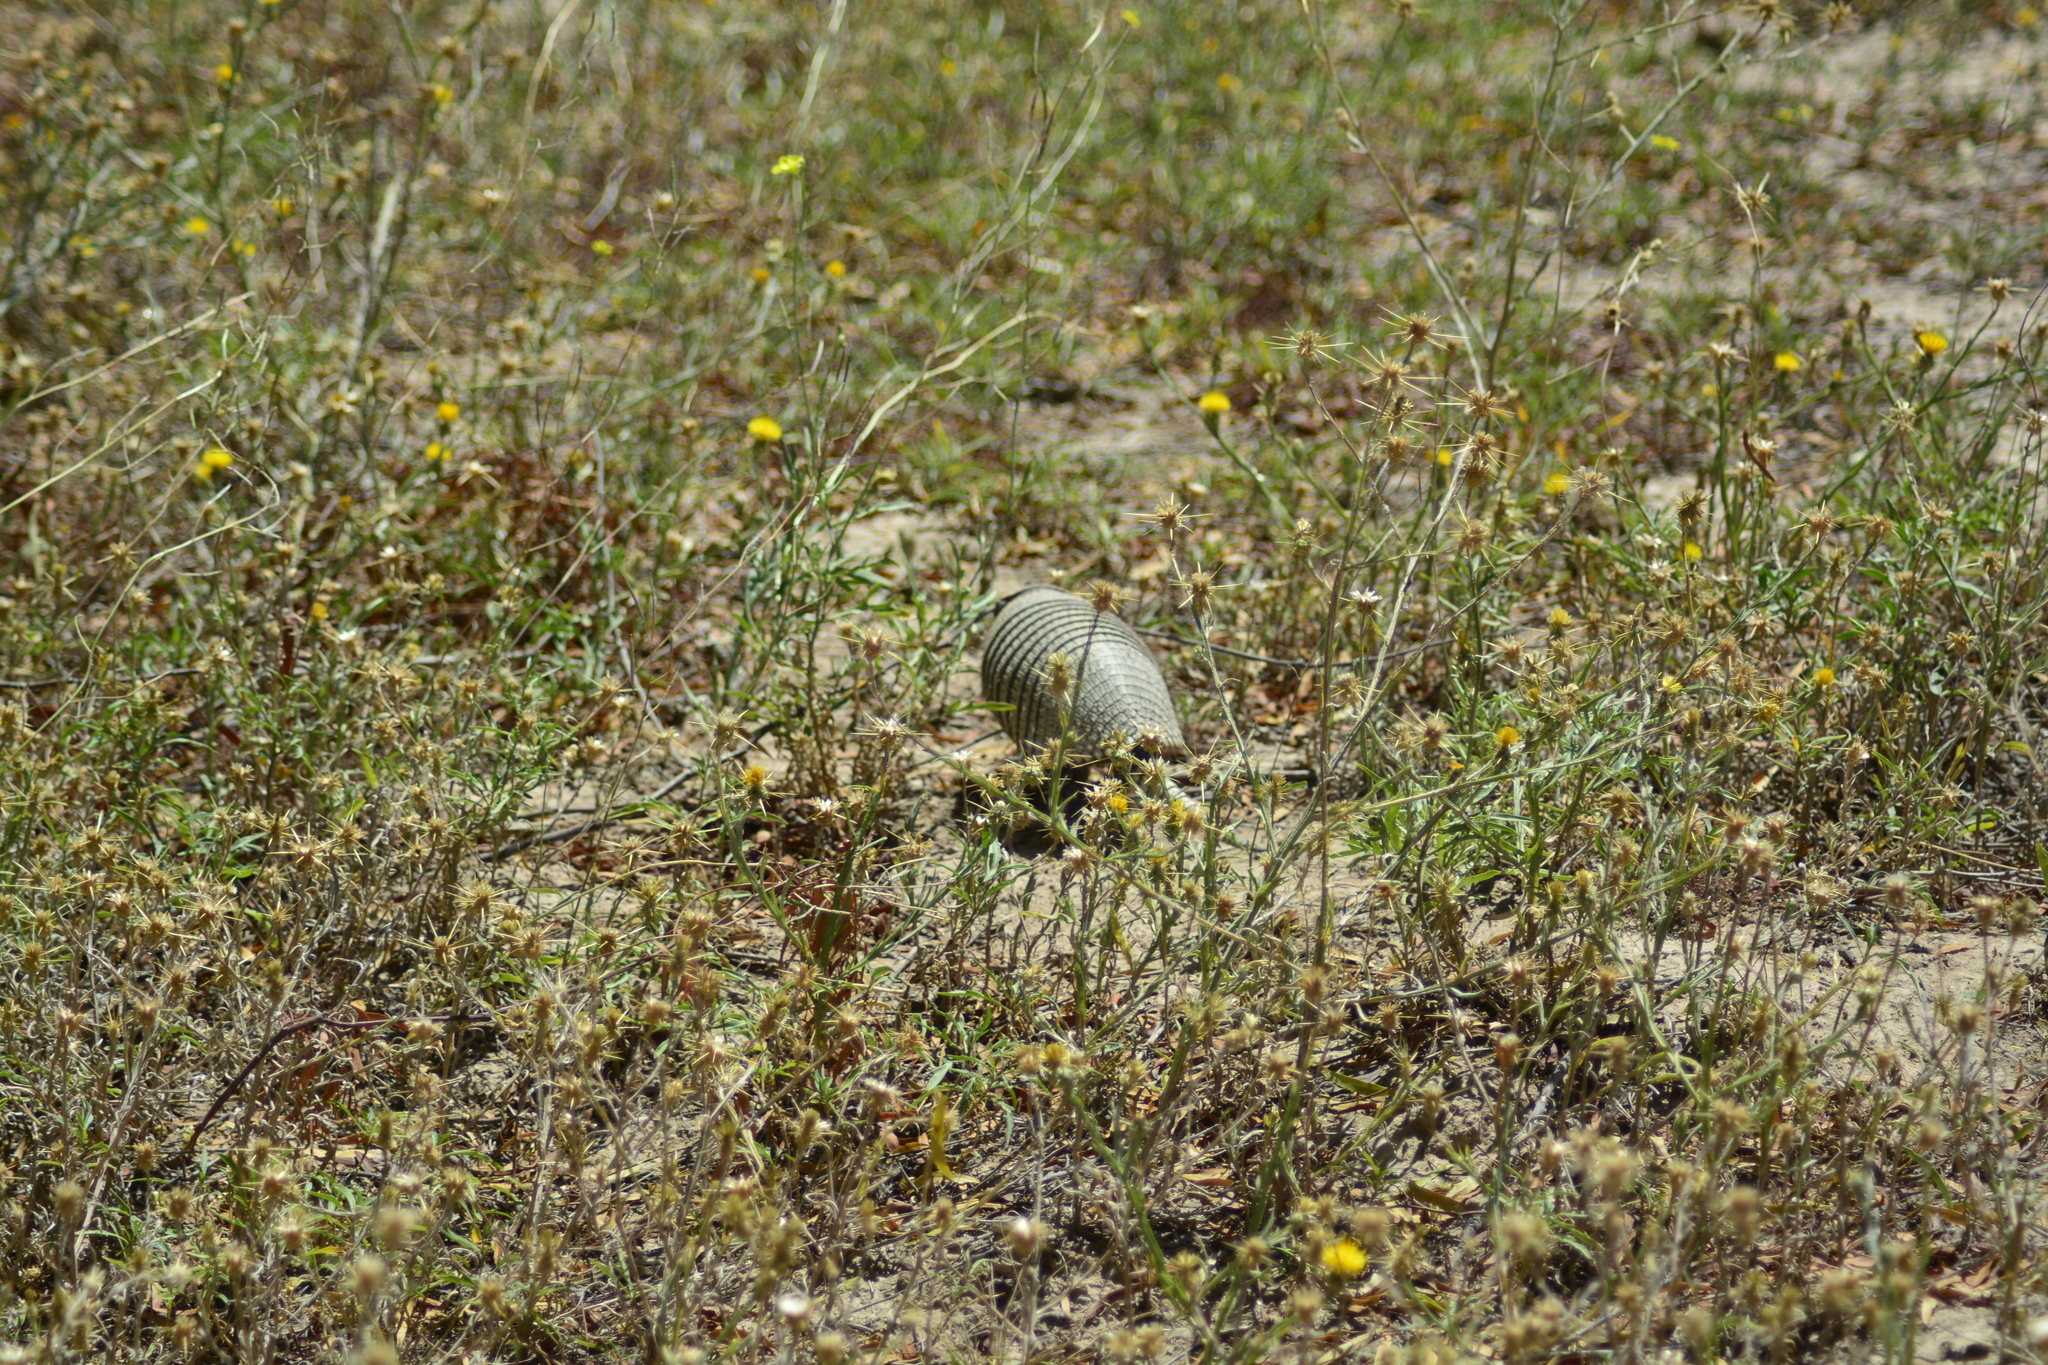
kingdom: Animalia
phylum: Chordata
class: Mammalia
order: Cingulata
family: Dasypodidae
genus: Zaedyus
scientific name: Zaedyus pichiy
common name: Pichi
